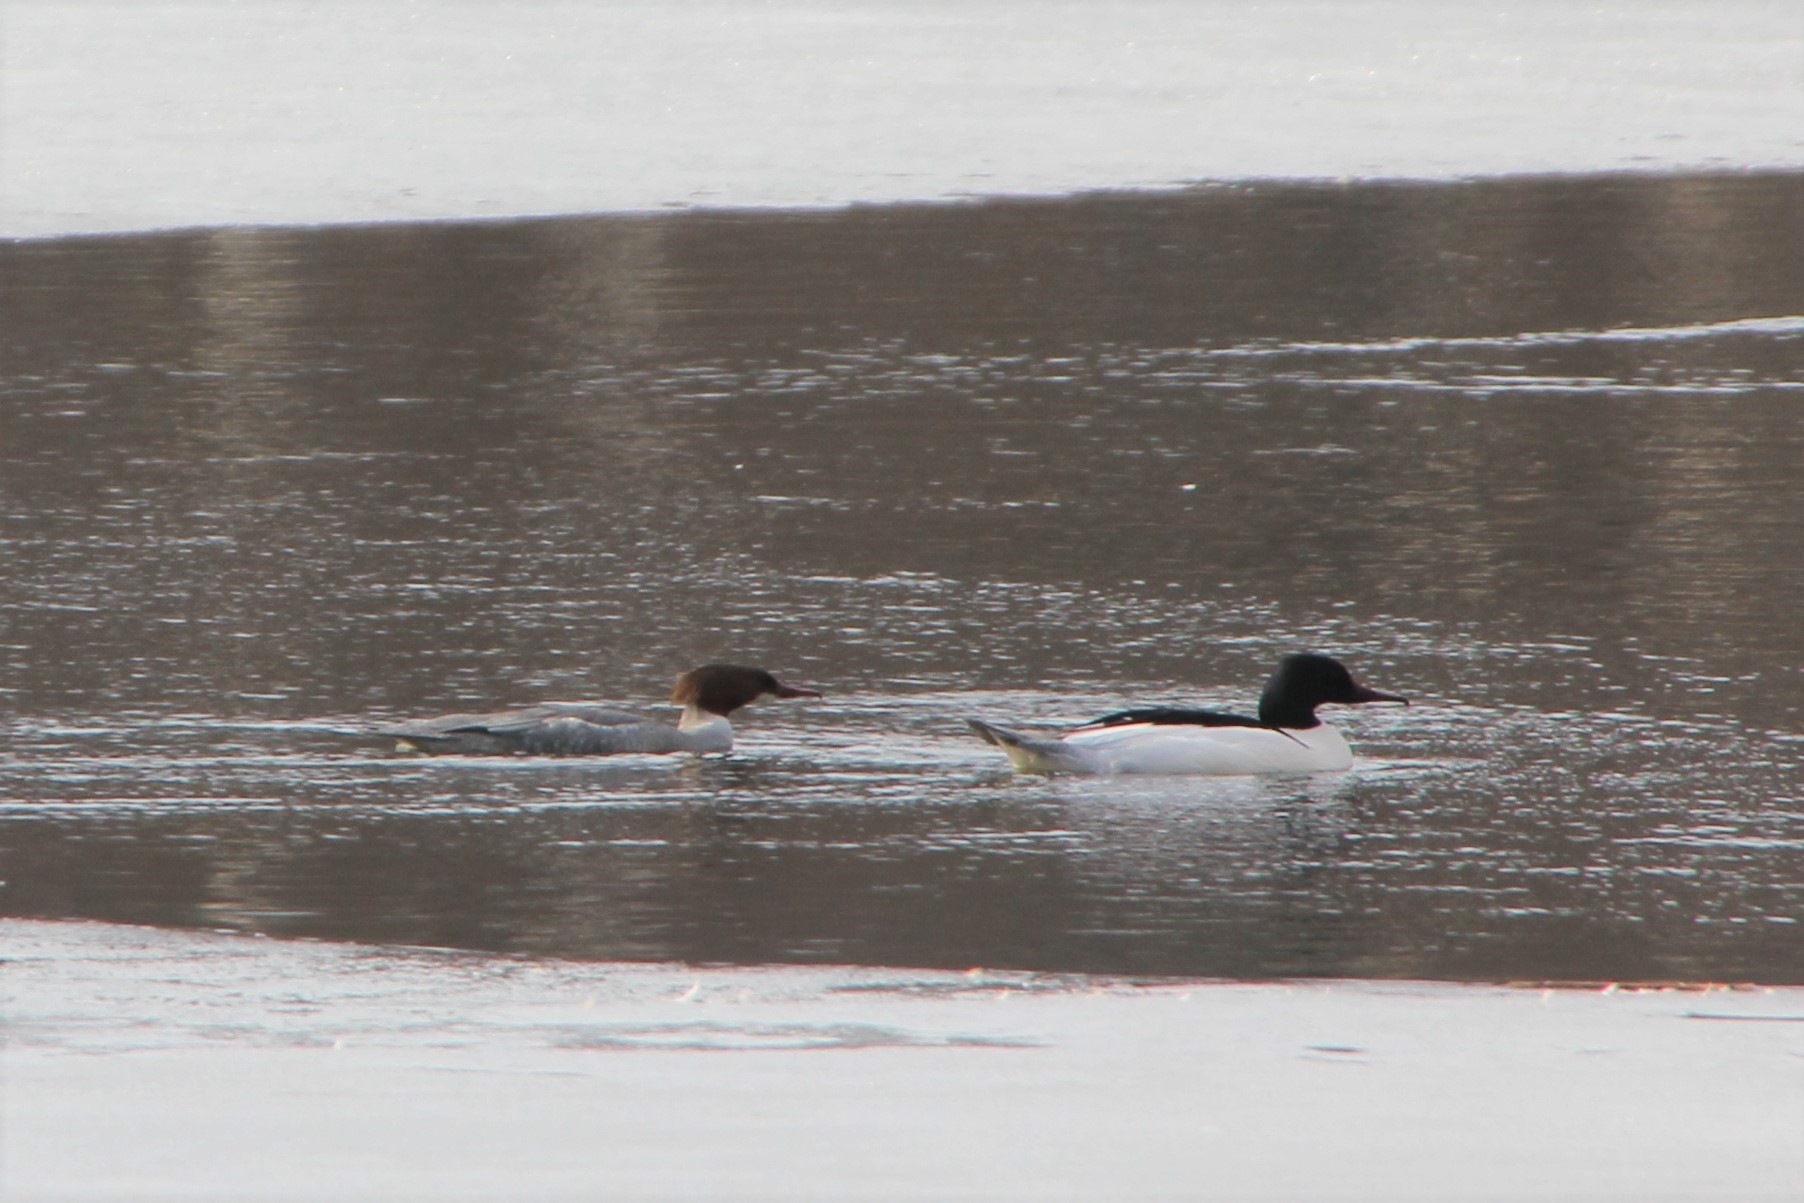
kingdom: Animalia
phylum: Chordata
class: Aves
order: Anseriformes
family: Anatidae
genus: Mergus
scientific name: Mergus merganser
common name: Common merganser
